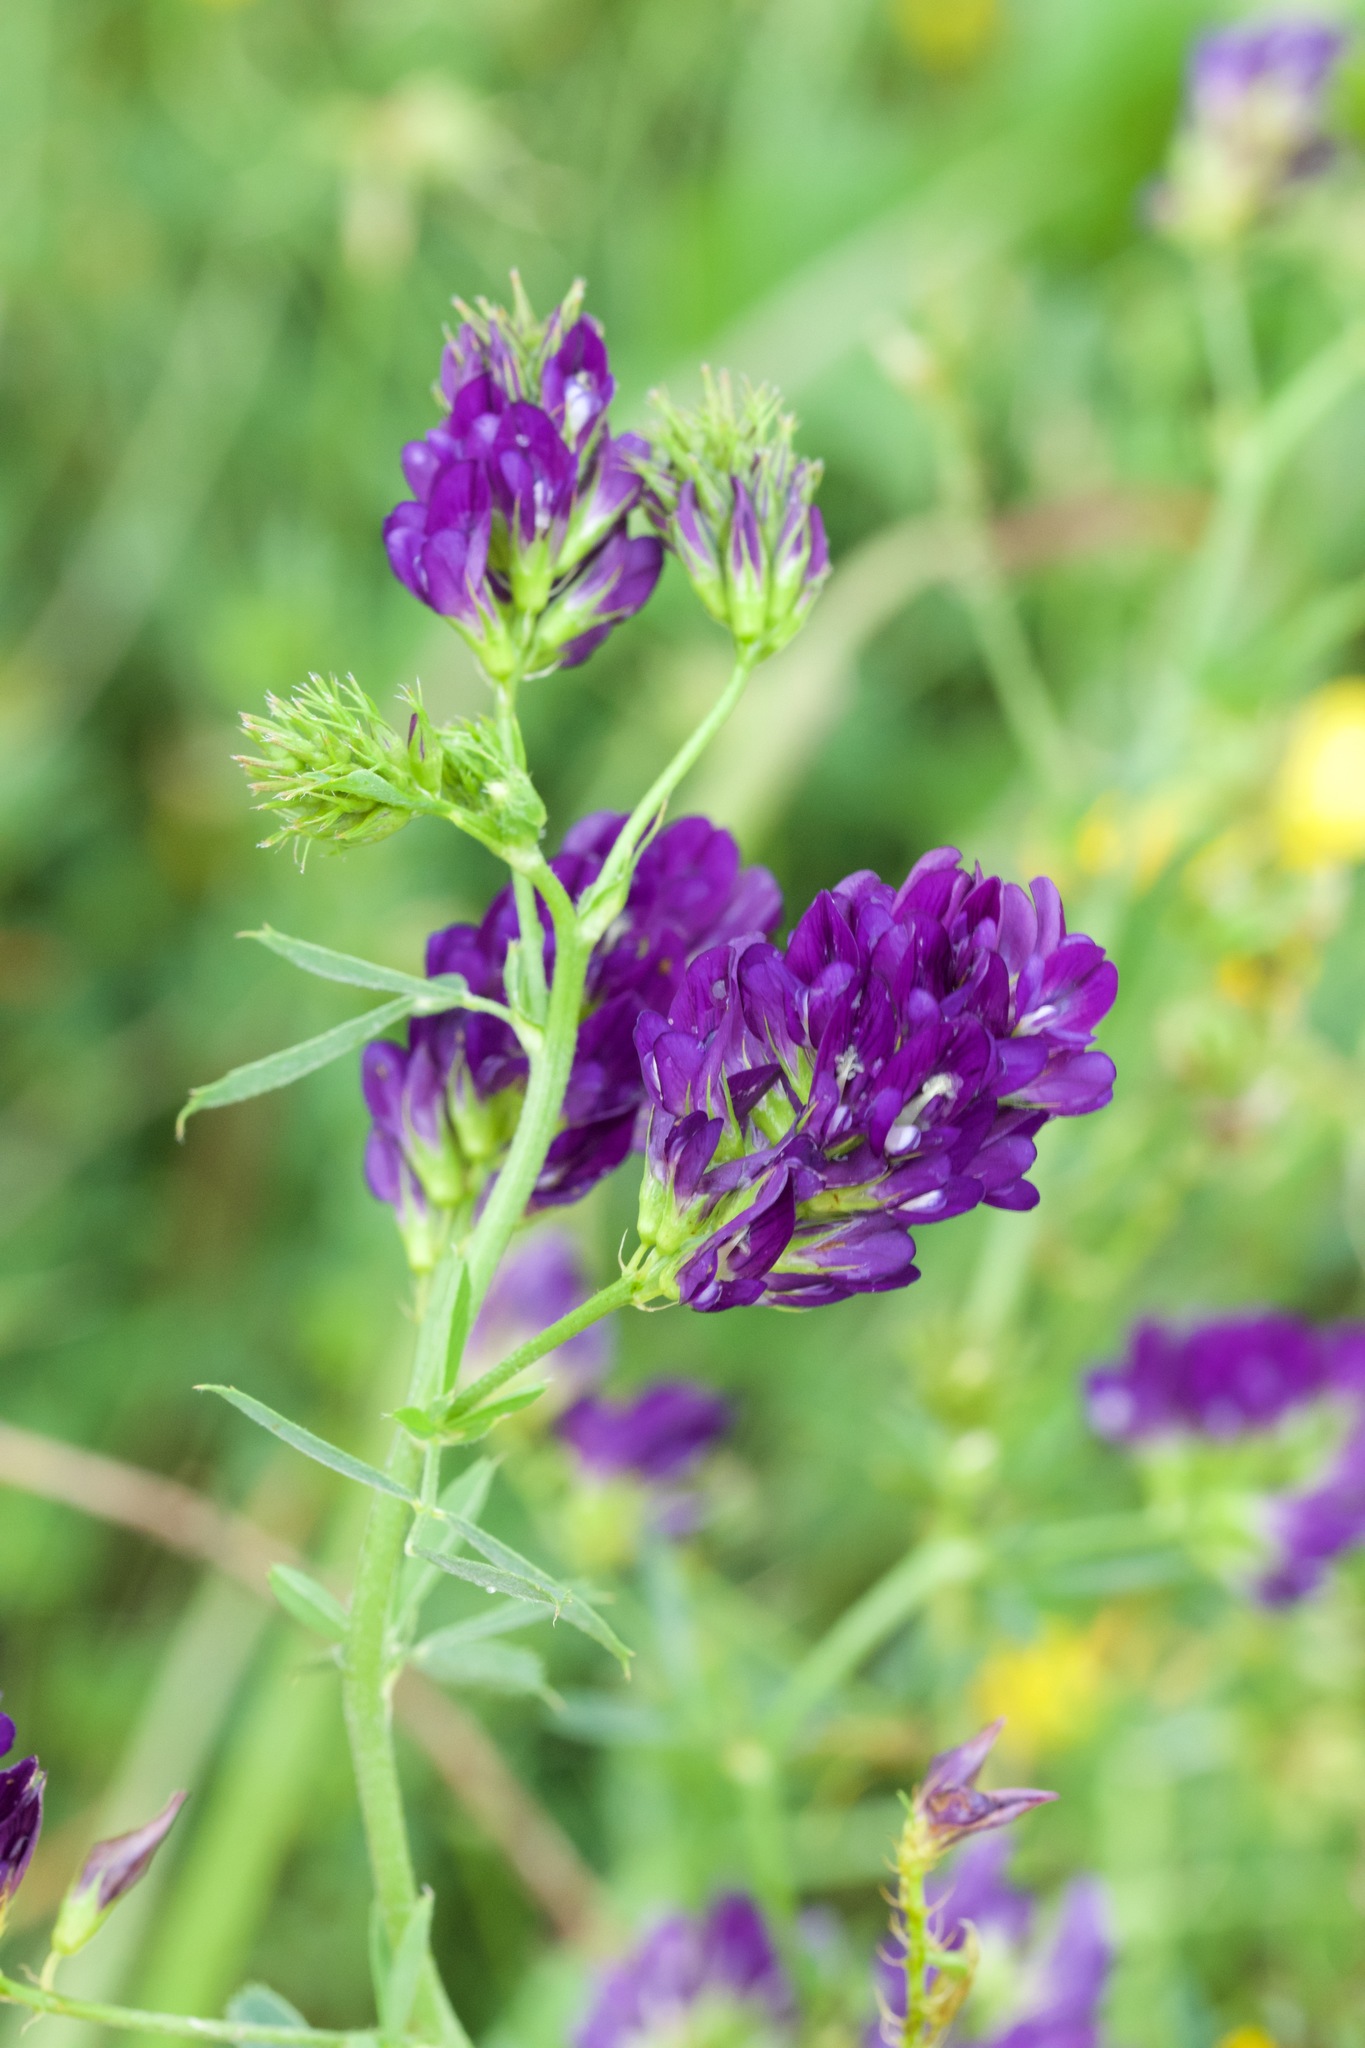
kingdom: Plantae
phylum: Tracheophyta
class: Magnoliopsida
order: Fabales
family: Fabaceae
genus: Medicago
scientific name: Medicago sativa
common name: Alfalfa
